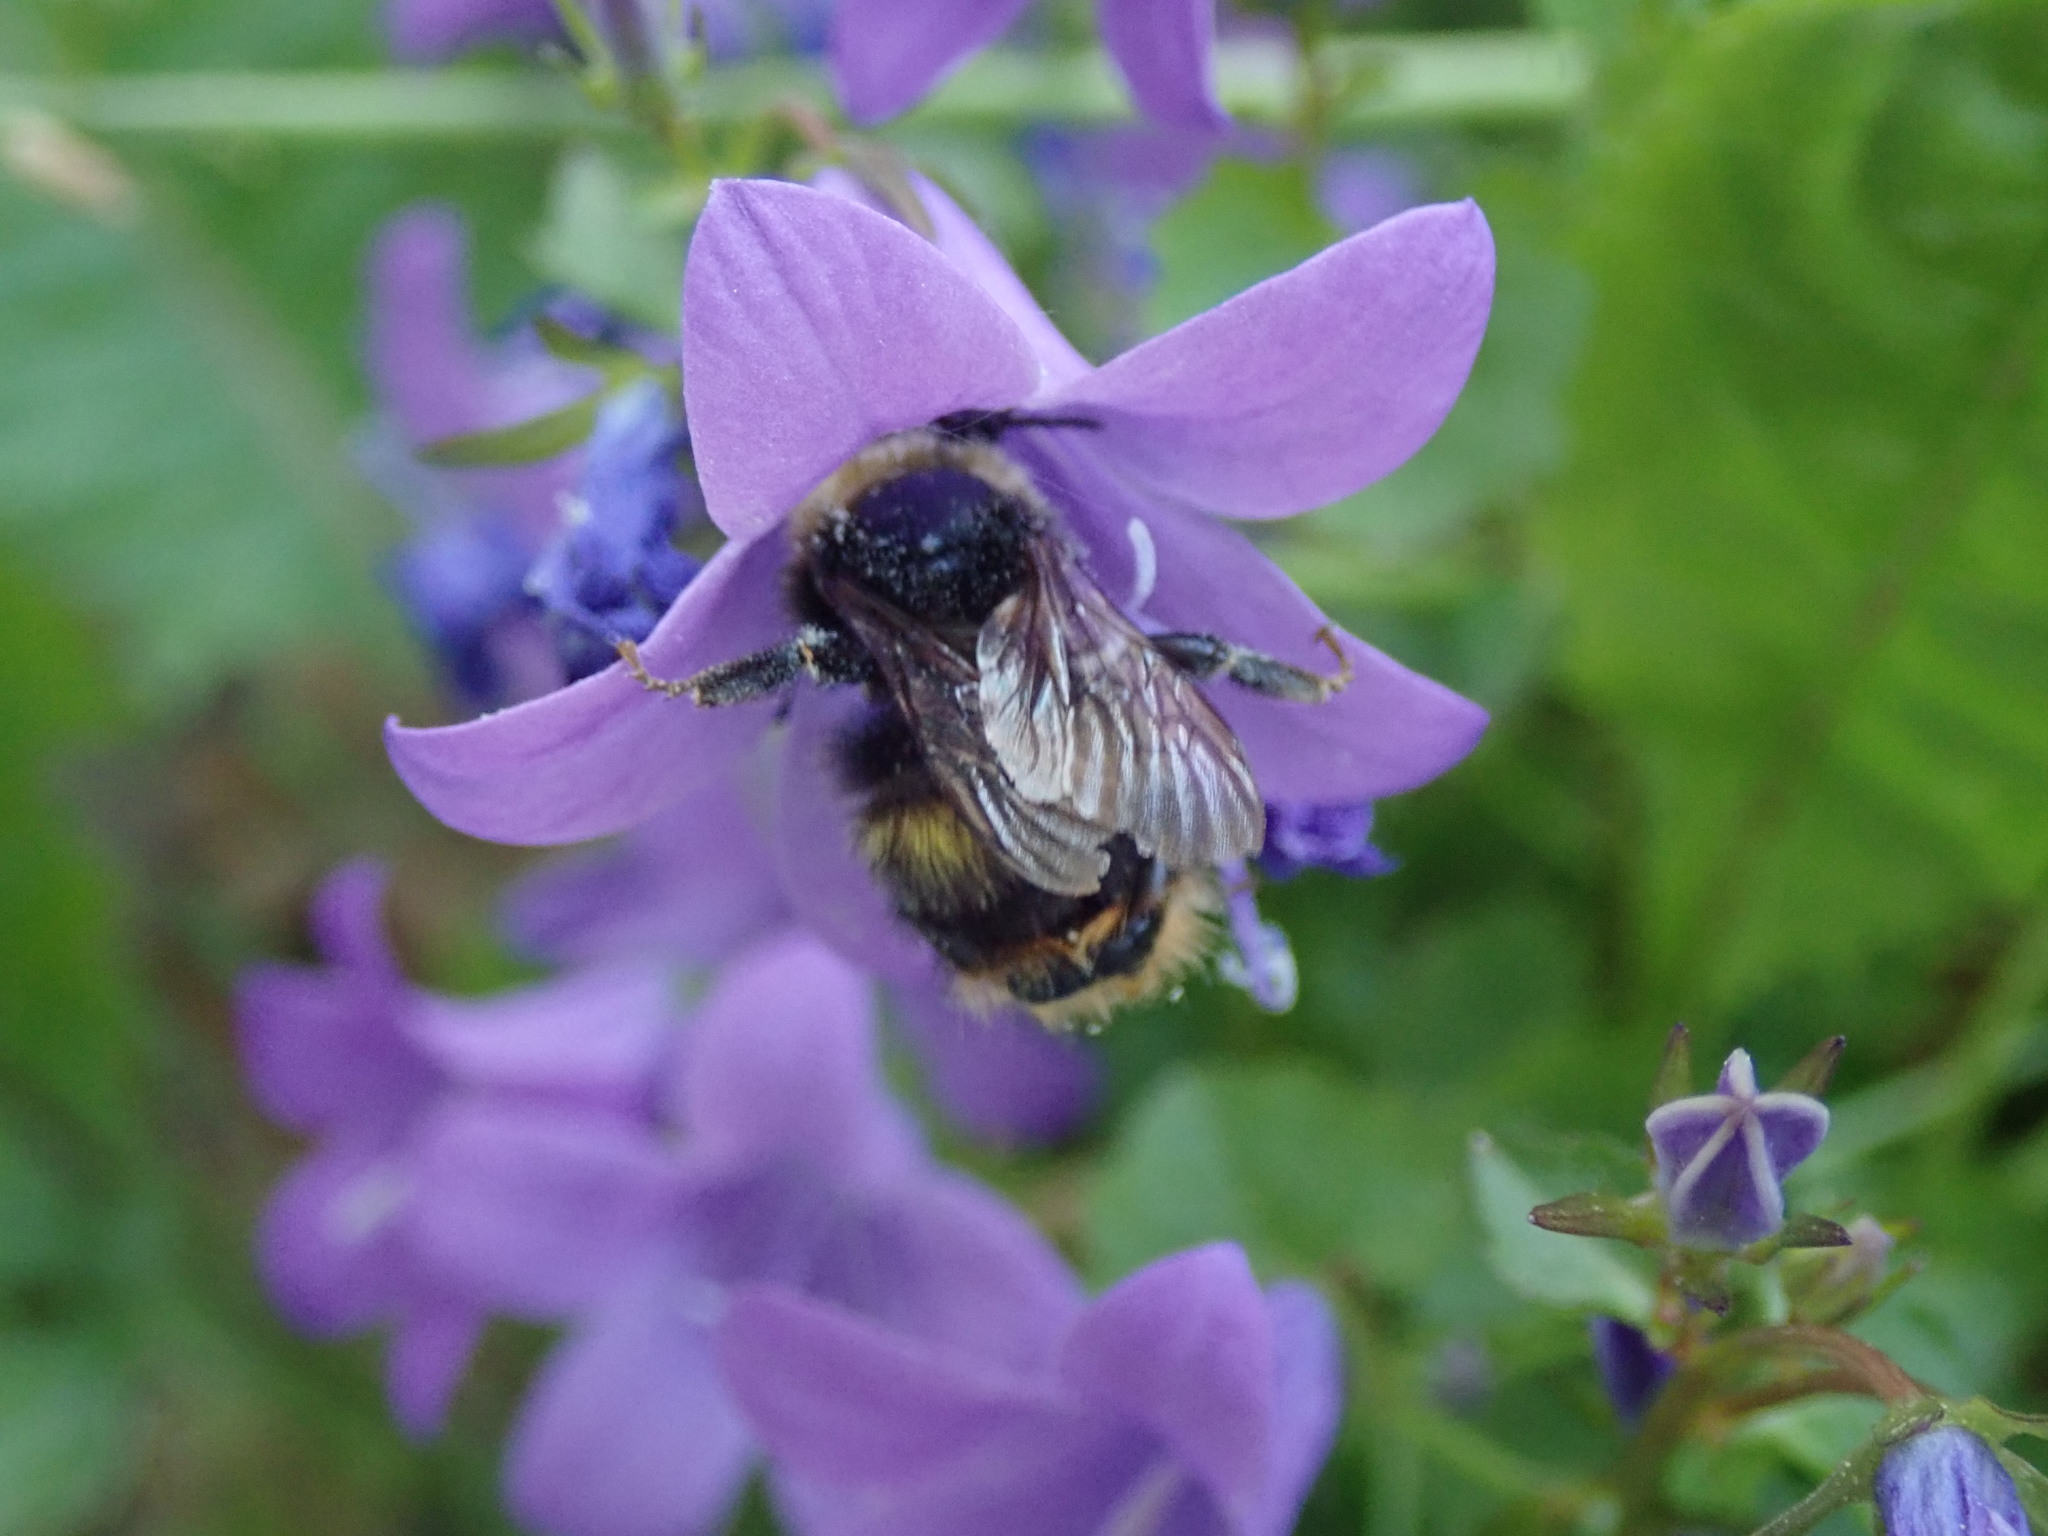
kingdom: Animalia
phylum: Arthropoda
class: Insecta
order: Hymenoptera
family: Apidae
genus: Bombus
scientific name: Bombus pratorum
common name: Early humble-bee
